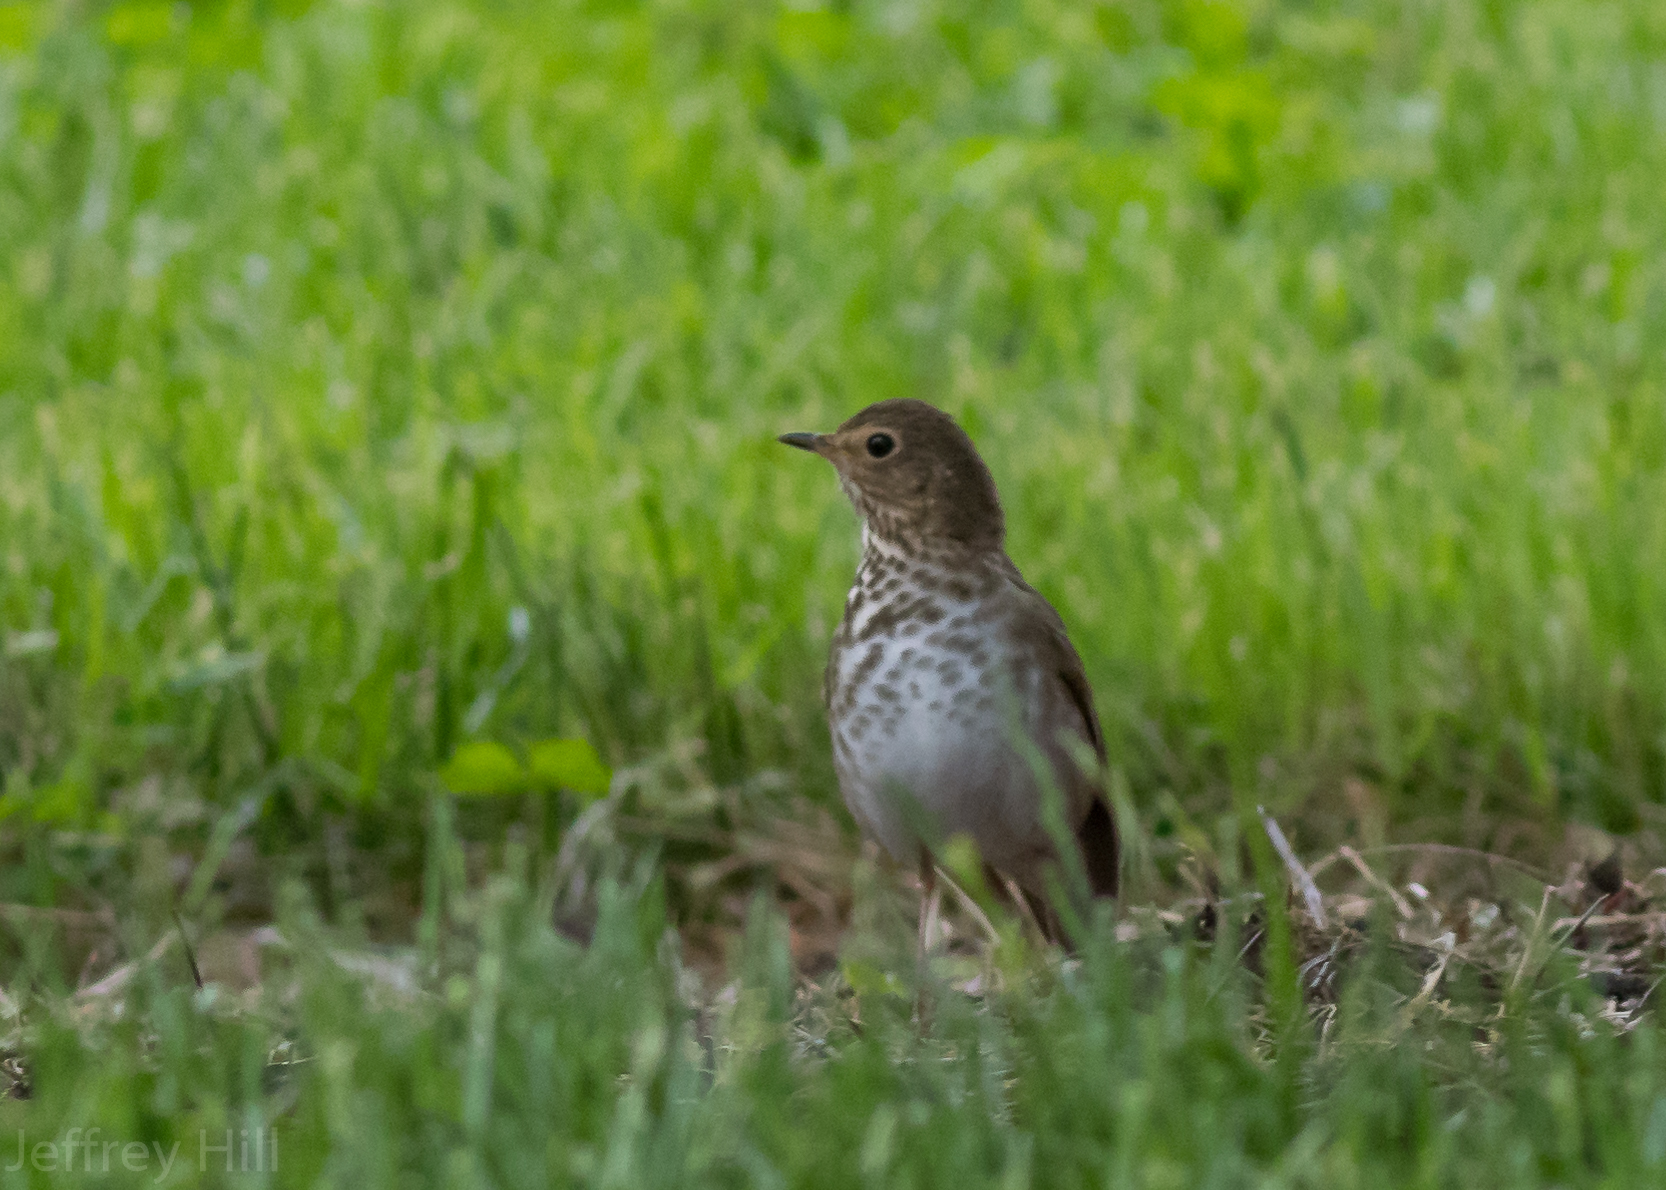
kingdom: Animalia
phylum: Chordata
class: Aves
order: Passeriformes
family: Turdidae
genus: Catharus
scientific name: Catharus ustulatus
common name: Swainson's thrush
